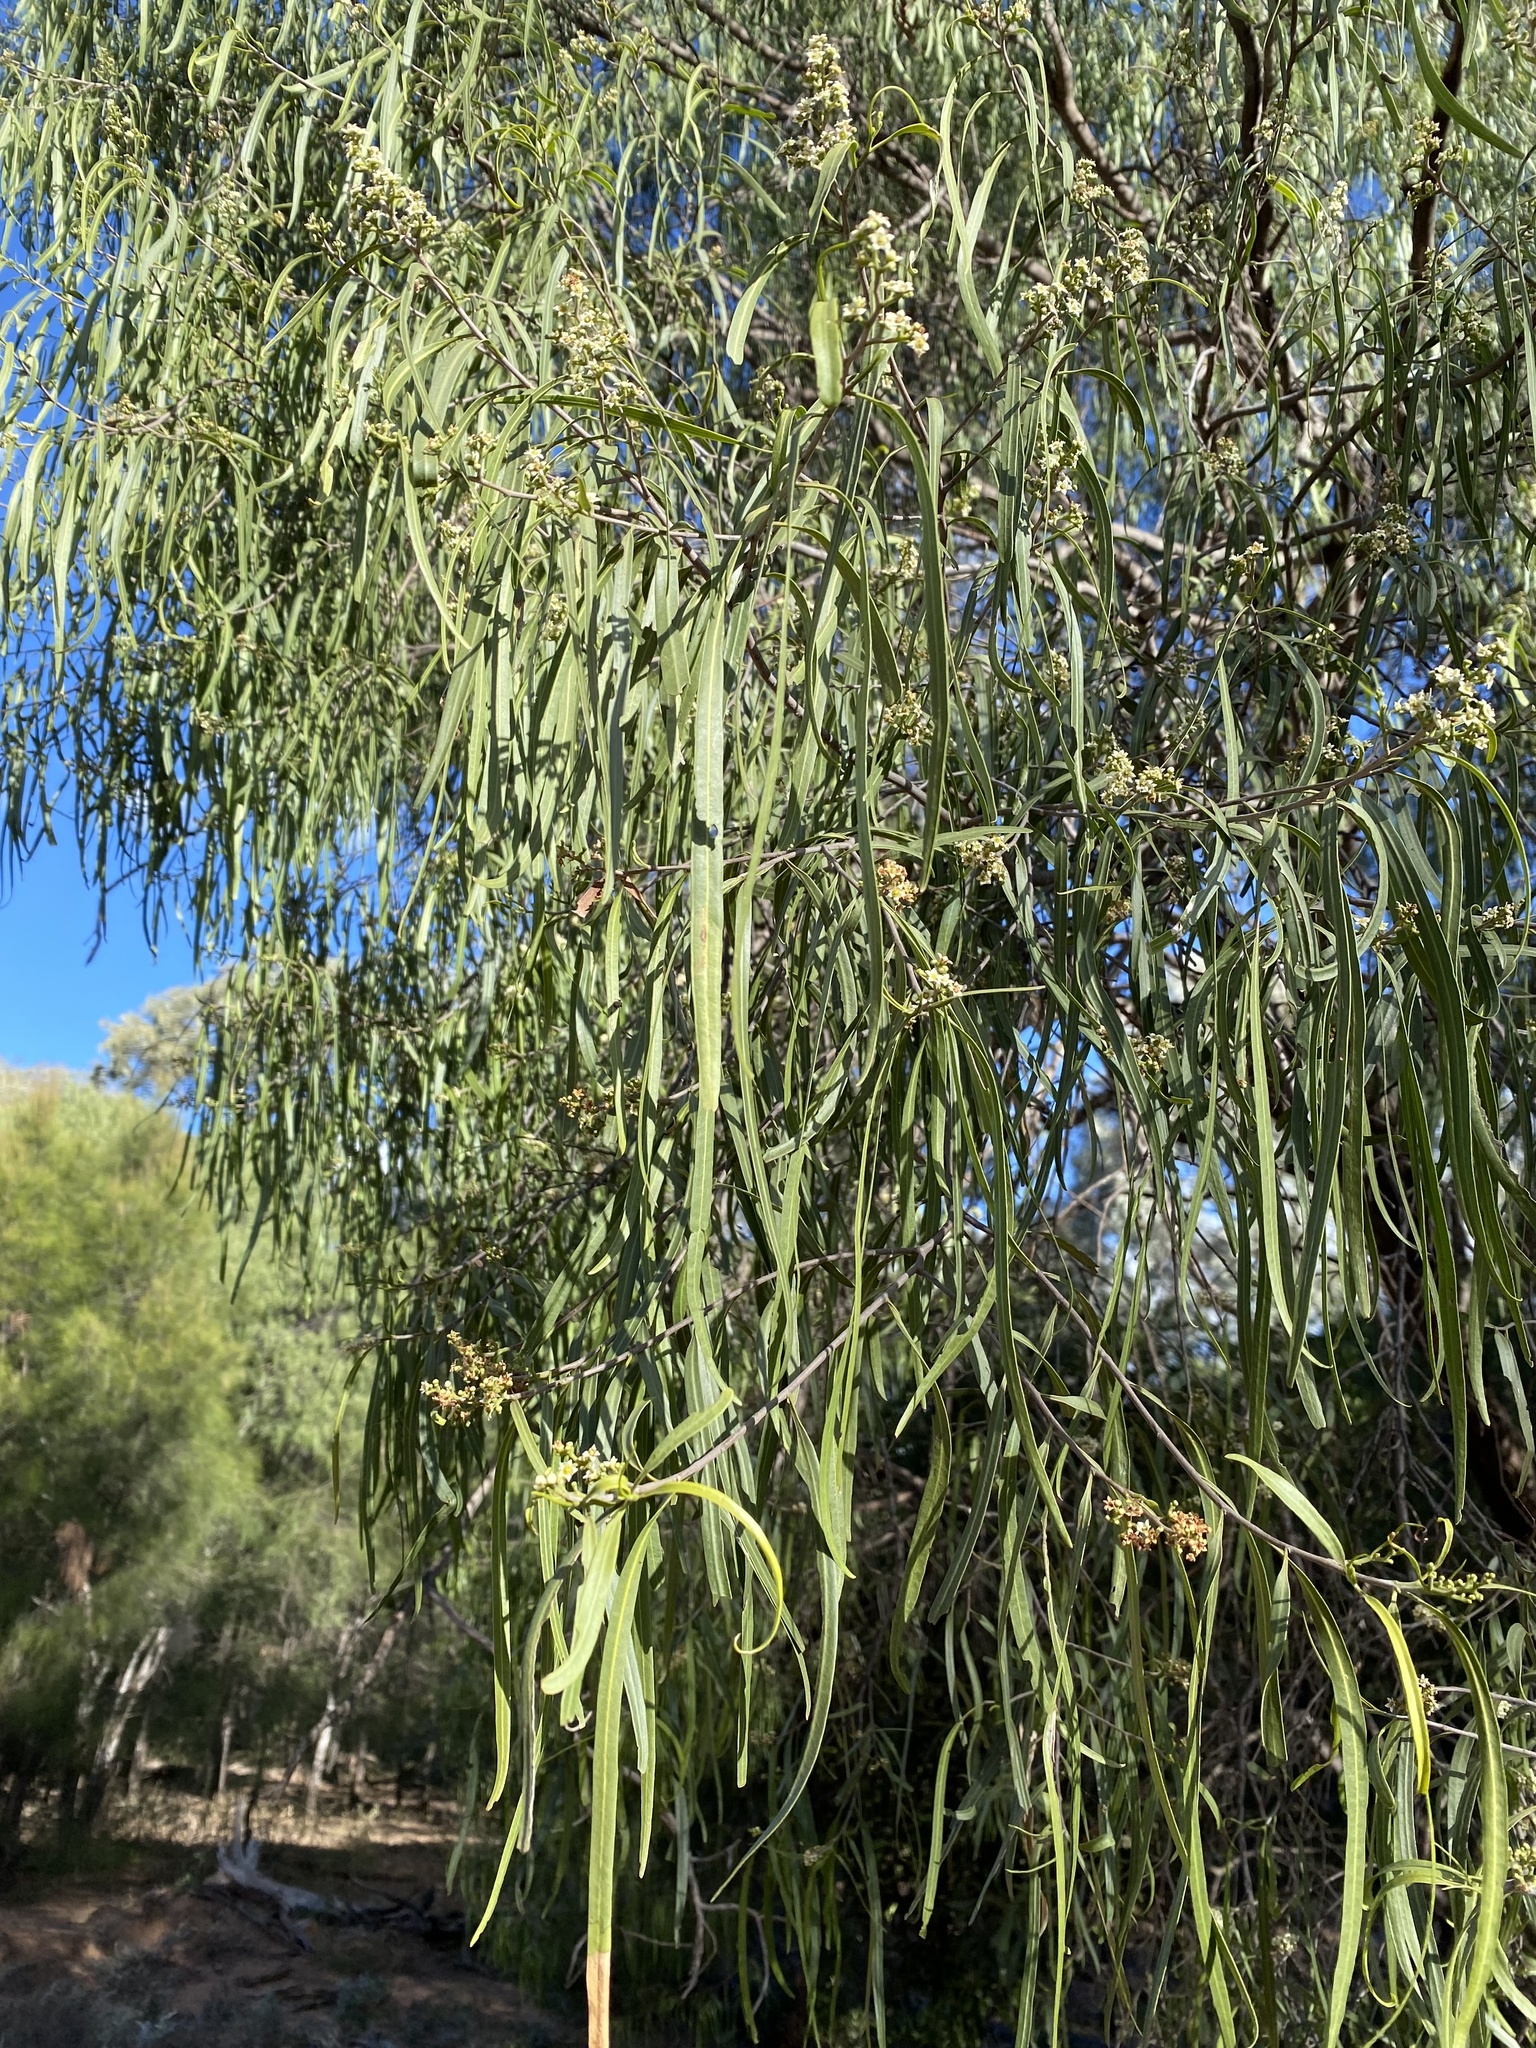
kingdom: Plantae
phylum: Tracheophyta
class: Magnoliopsida
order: Sapindales
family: Rutaceae
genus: Geijera
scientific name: Geijera parviflora
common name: Wilga
